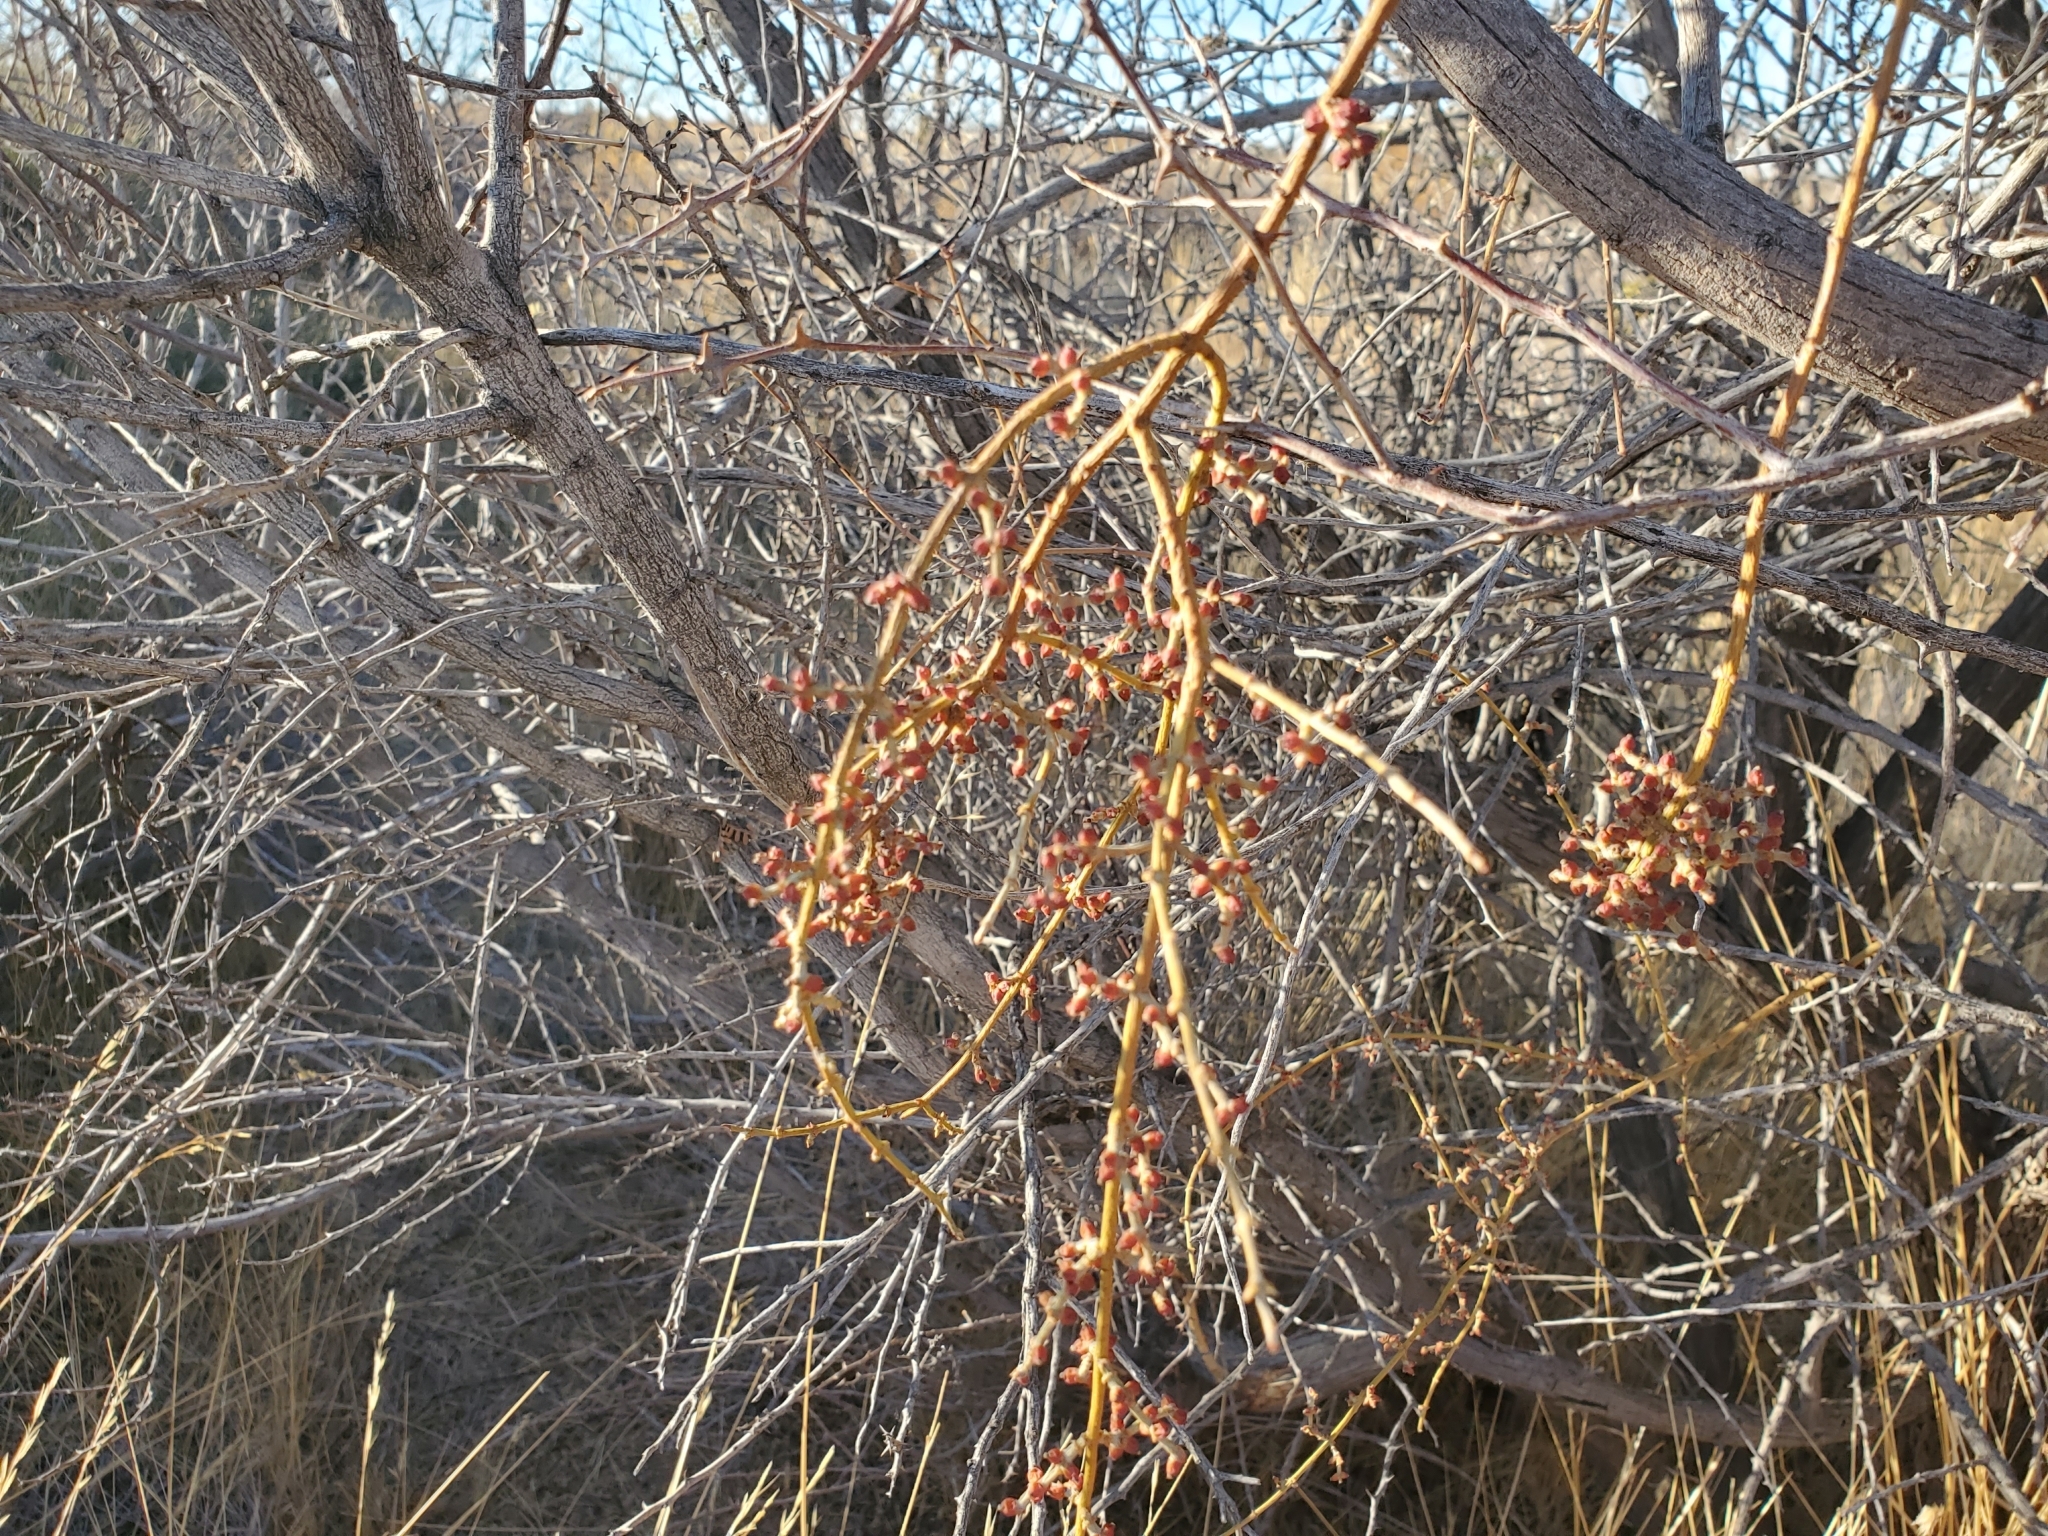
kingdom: Plantae
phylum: Tracheophyta
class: Magnoliopsida
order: Santalales
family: Viscaceae
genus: Phoradendron
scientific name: Phoradendron californicum
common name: Acacia mistletoe
